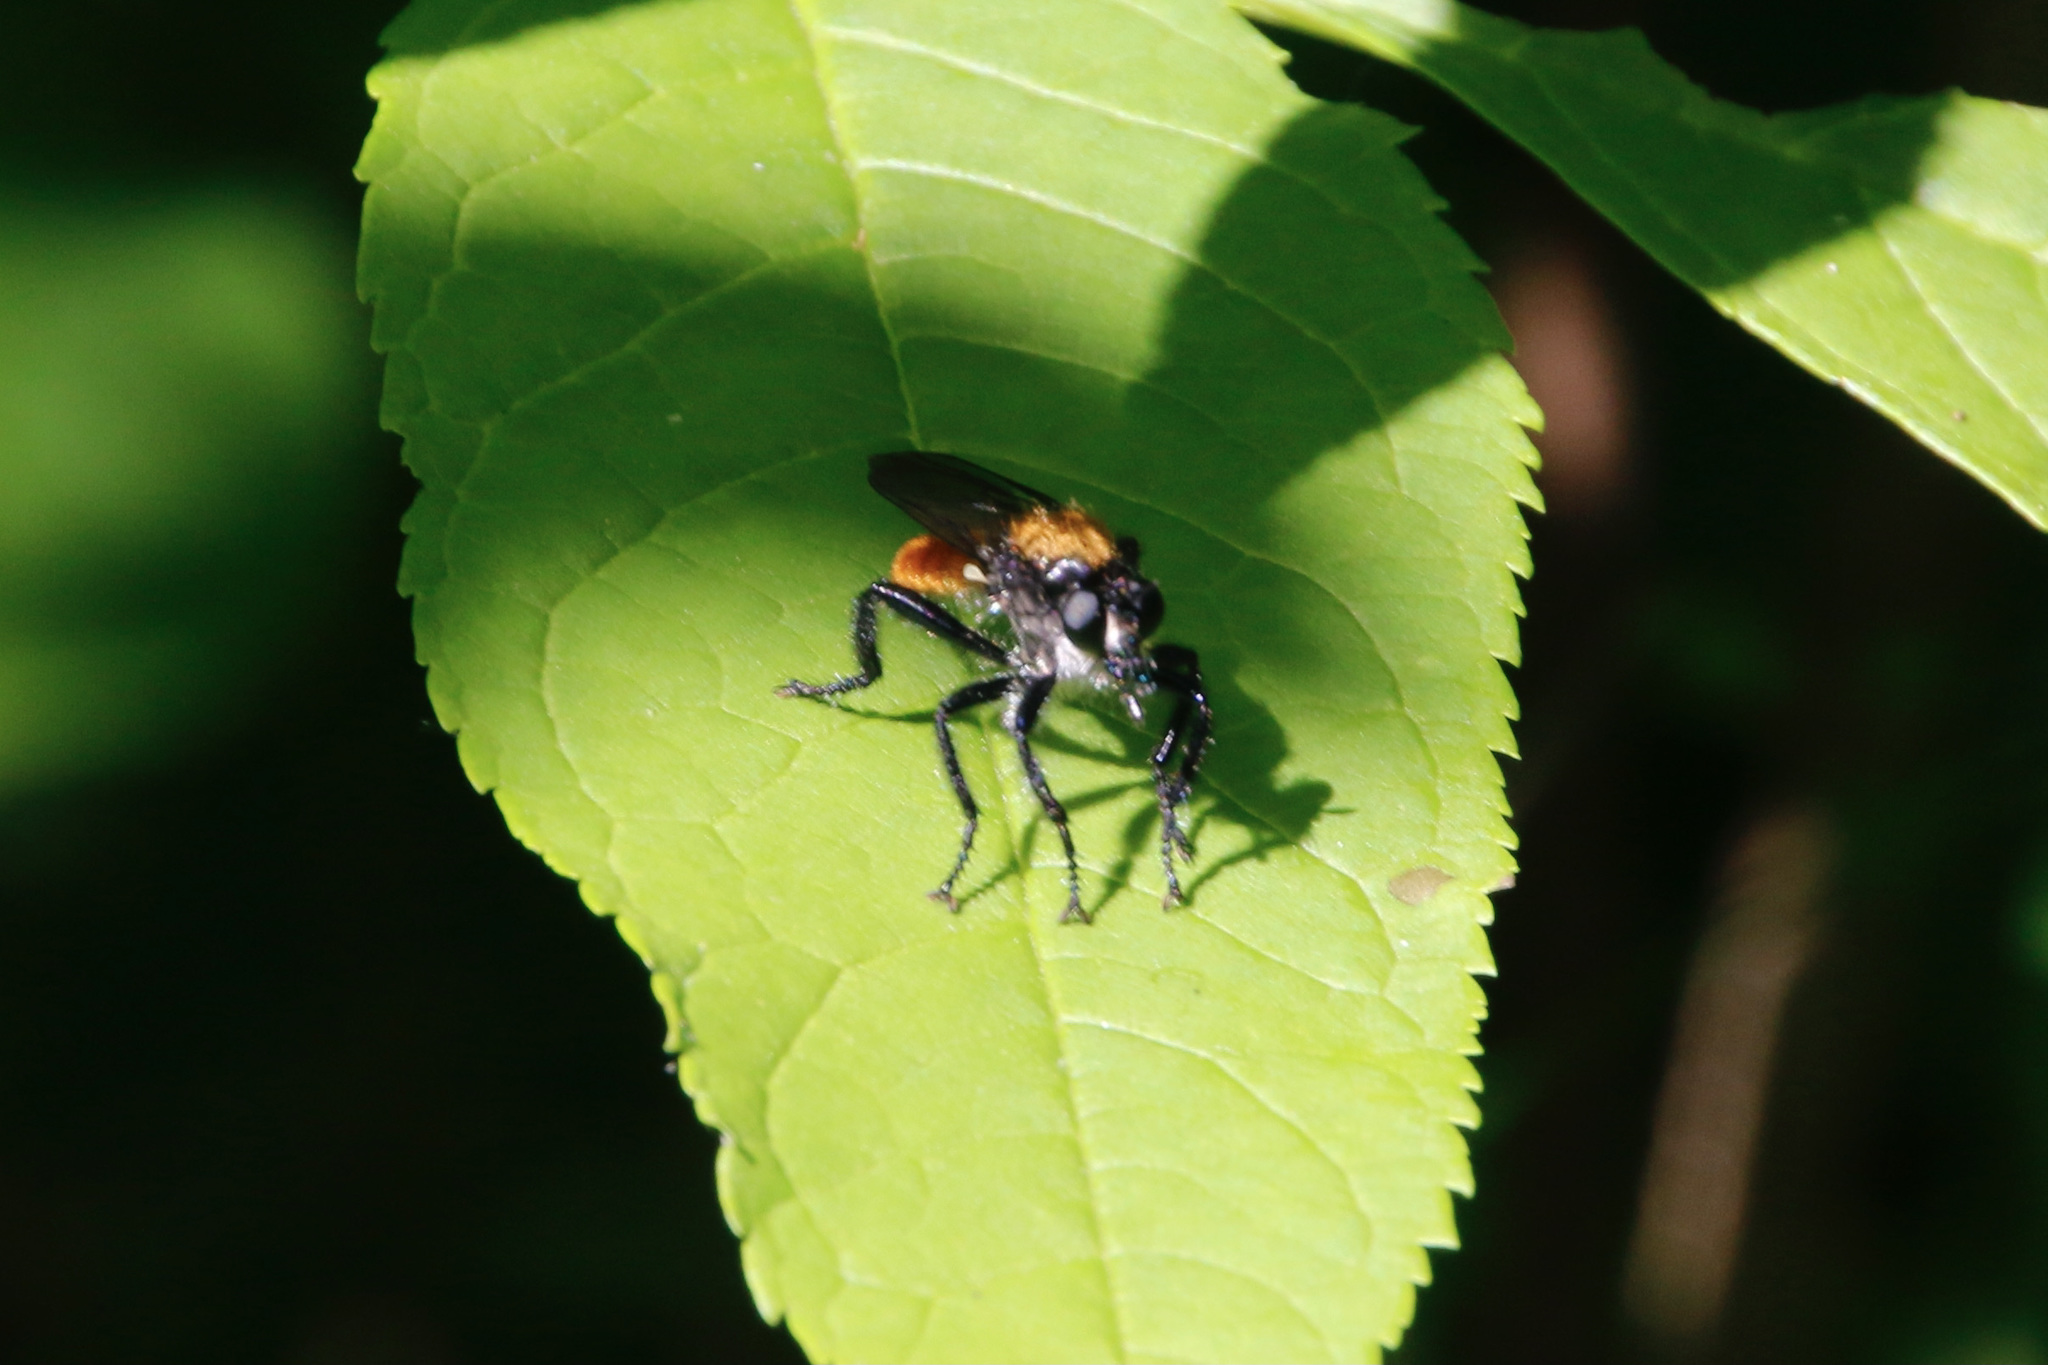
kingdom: Animalia
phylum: Arthropoda
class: Insecta
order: Diptera
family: Asilidae
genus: Laphria
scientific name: Laphria
